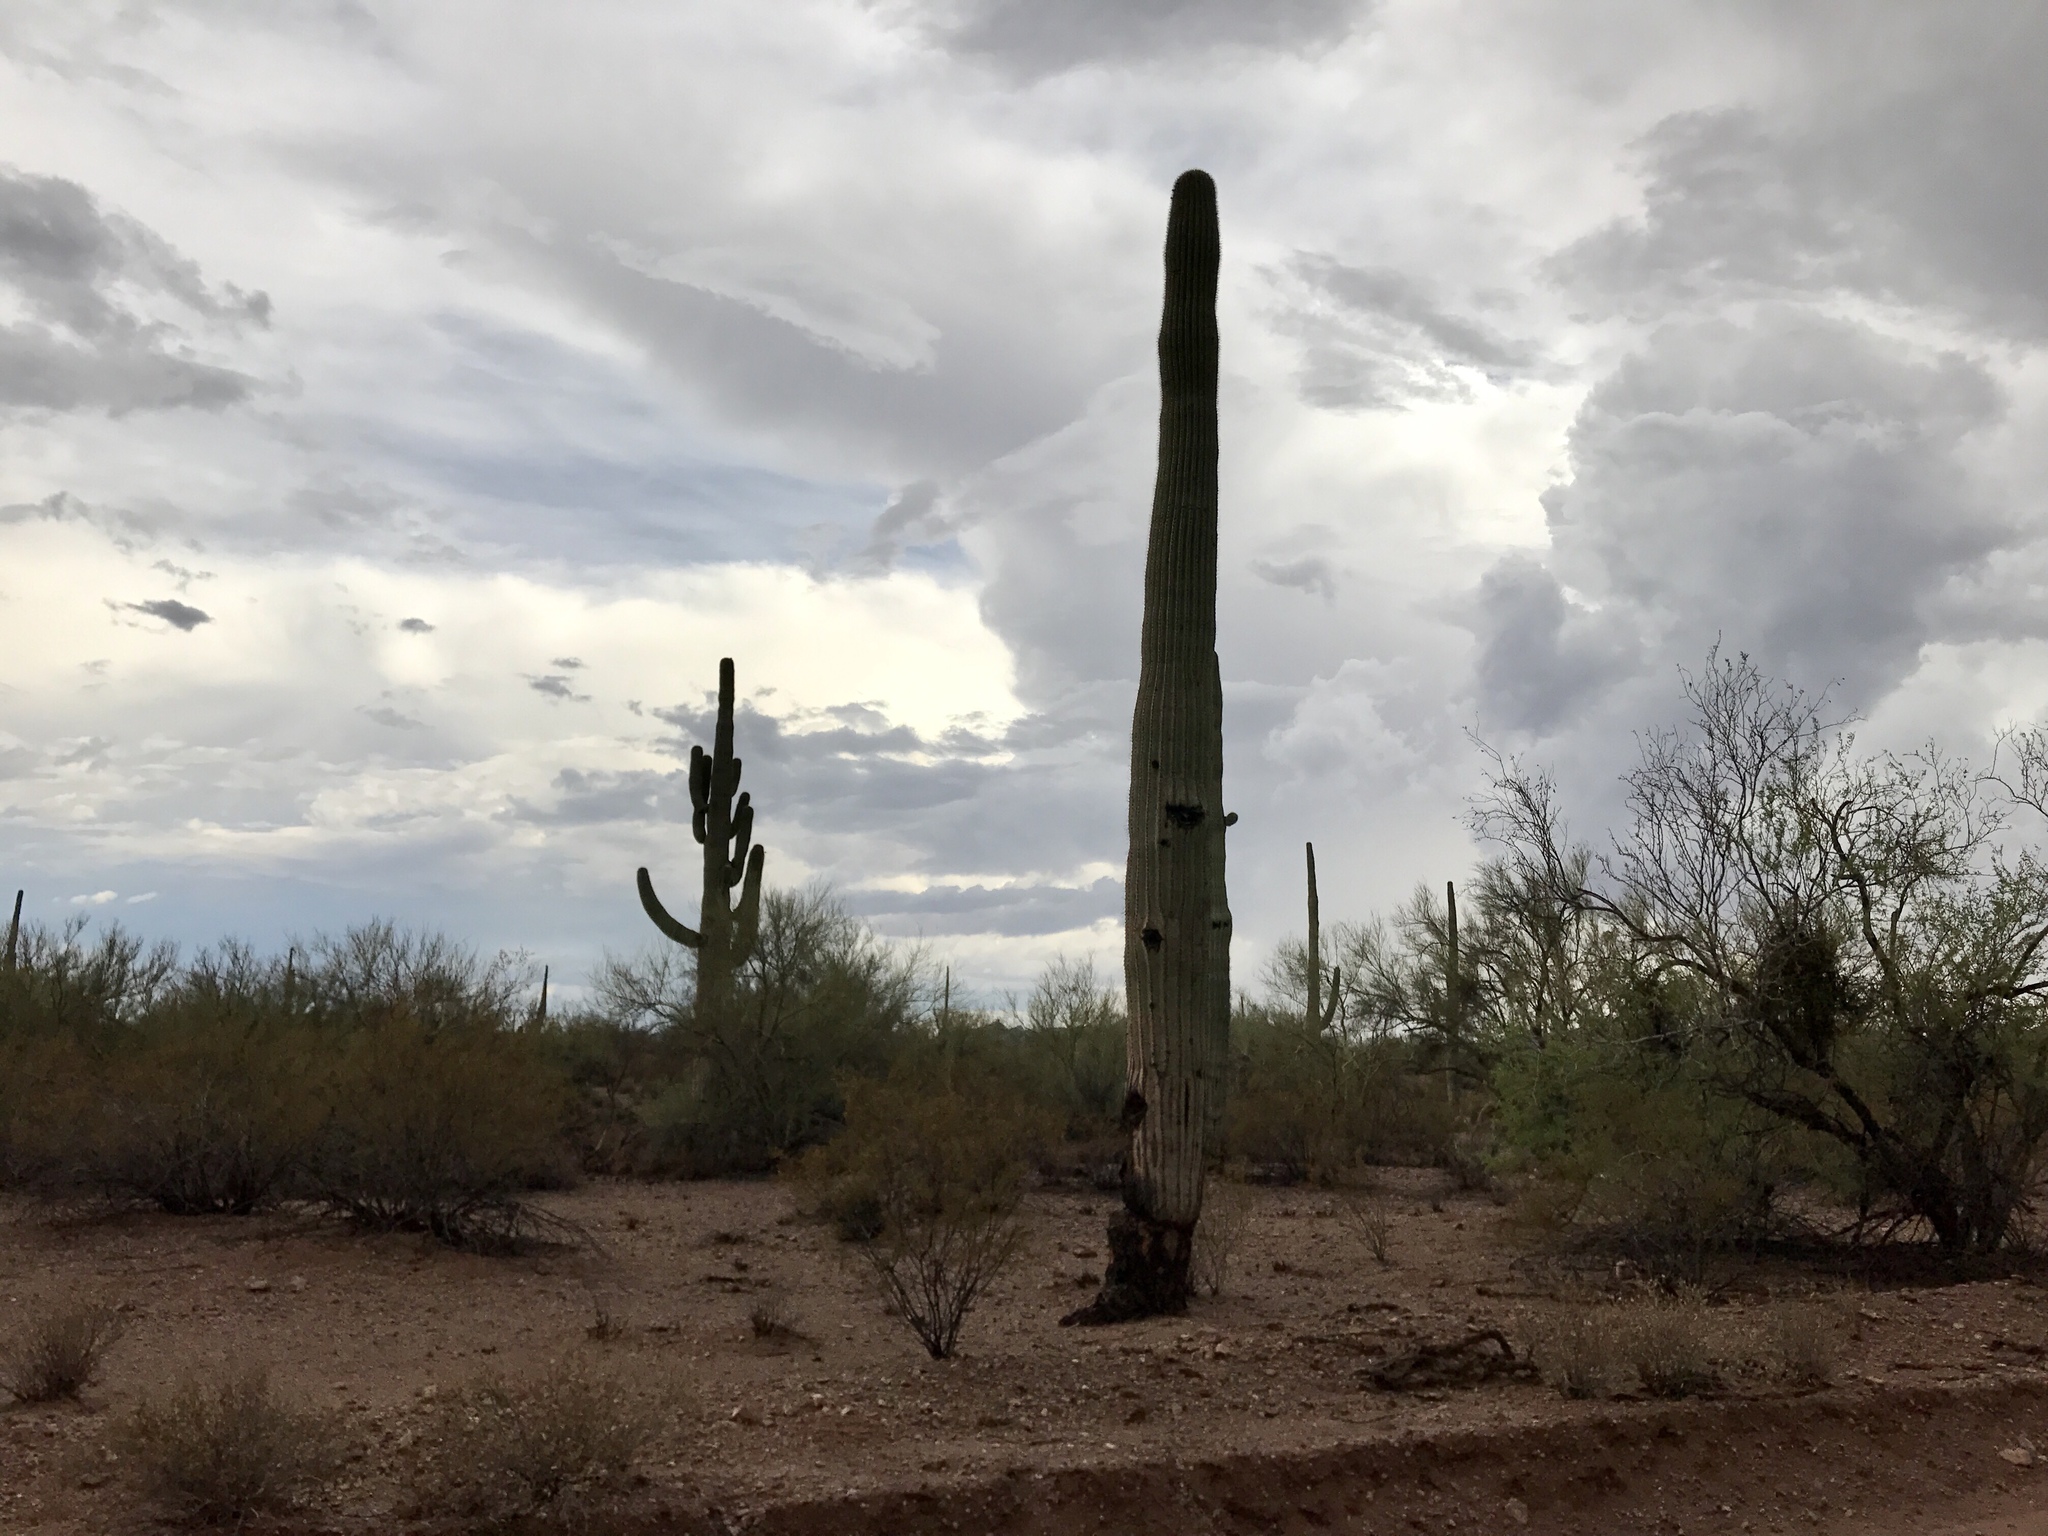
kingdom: Plantae
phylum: Tracheophyta
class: Magnoliopsida
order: Caryophyllales
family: Cactaceae
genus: Carnegiea
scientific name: Carnegiea gigantea
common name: Saguaro
